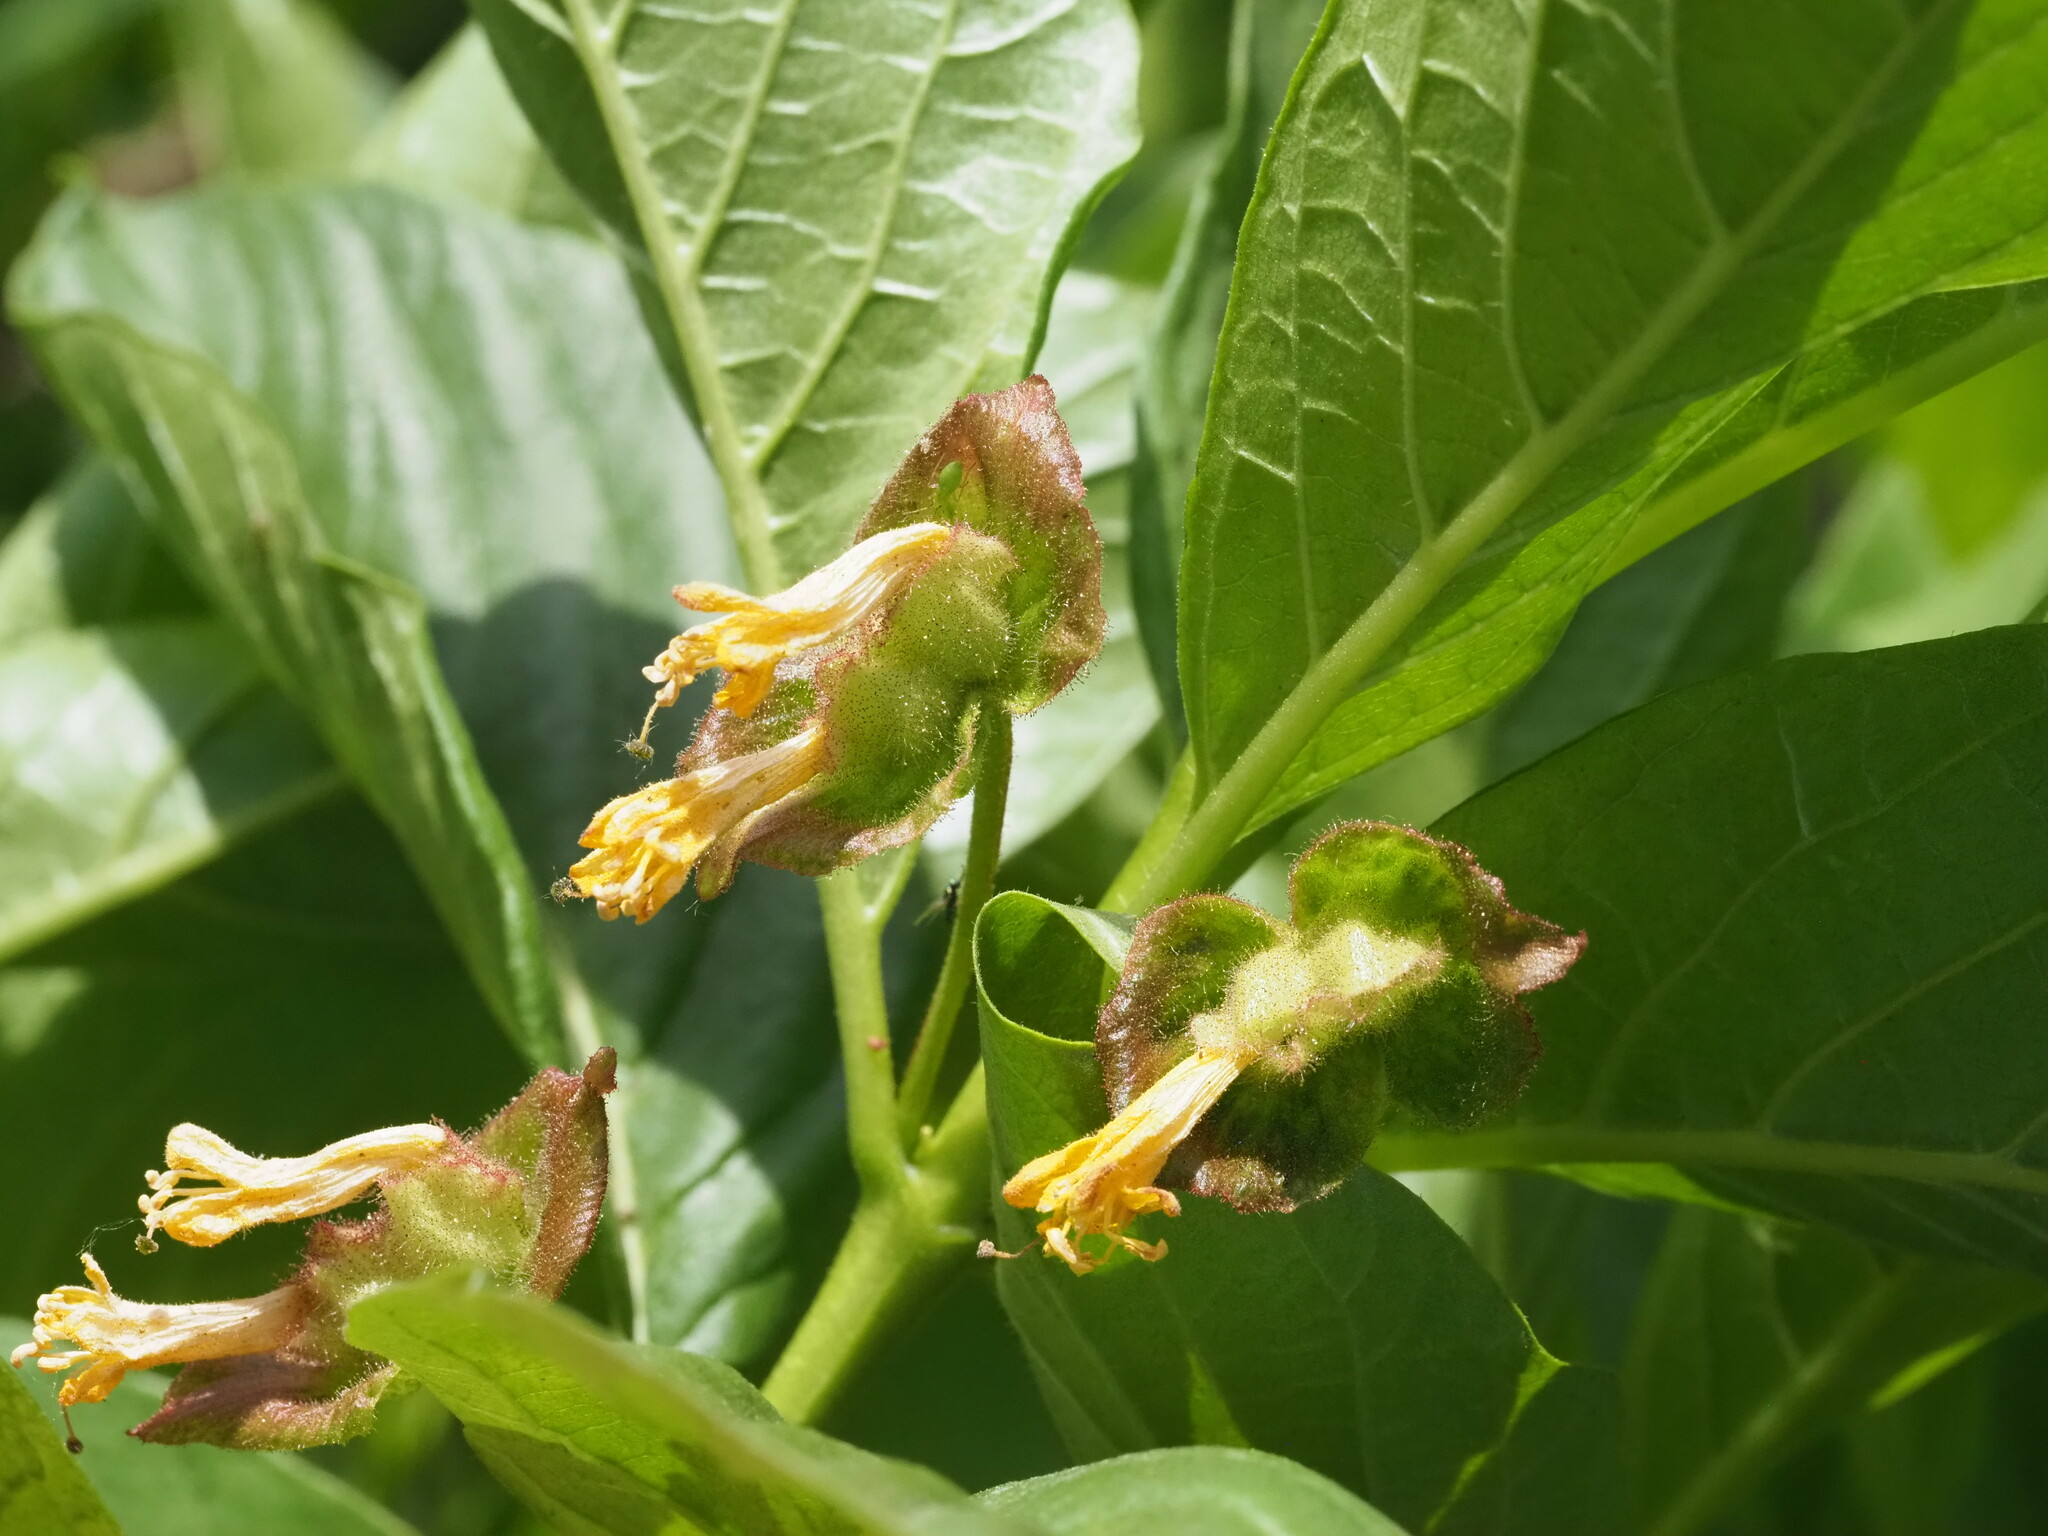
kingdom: Plantae
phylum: Tracheophyta
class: Magnoliopsida
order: Dipsacales
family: Caprifoliaceae
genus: Lonicera
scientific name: Lonicera involucrata
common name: Californian honeysuckle
